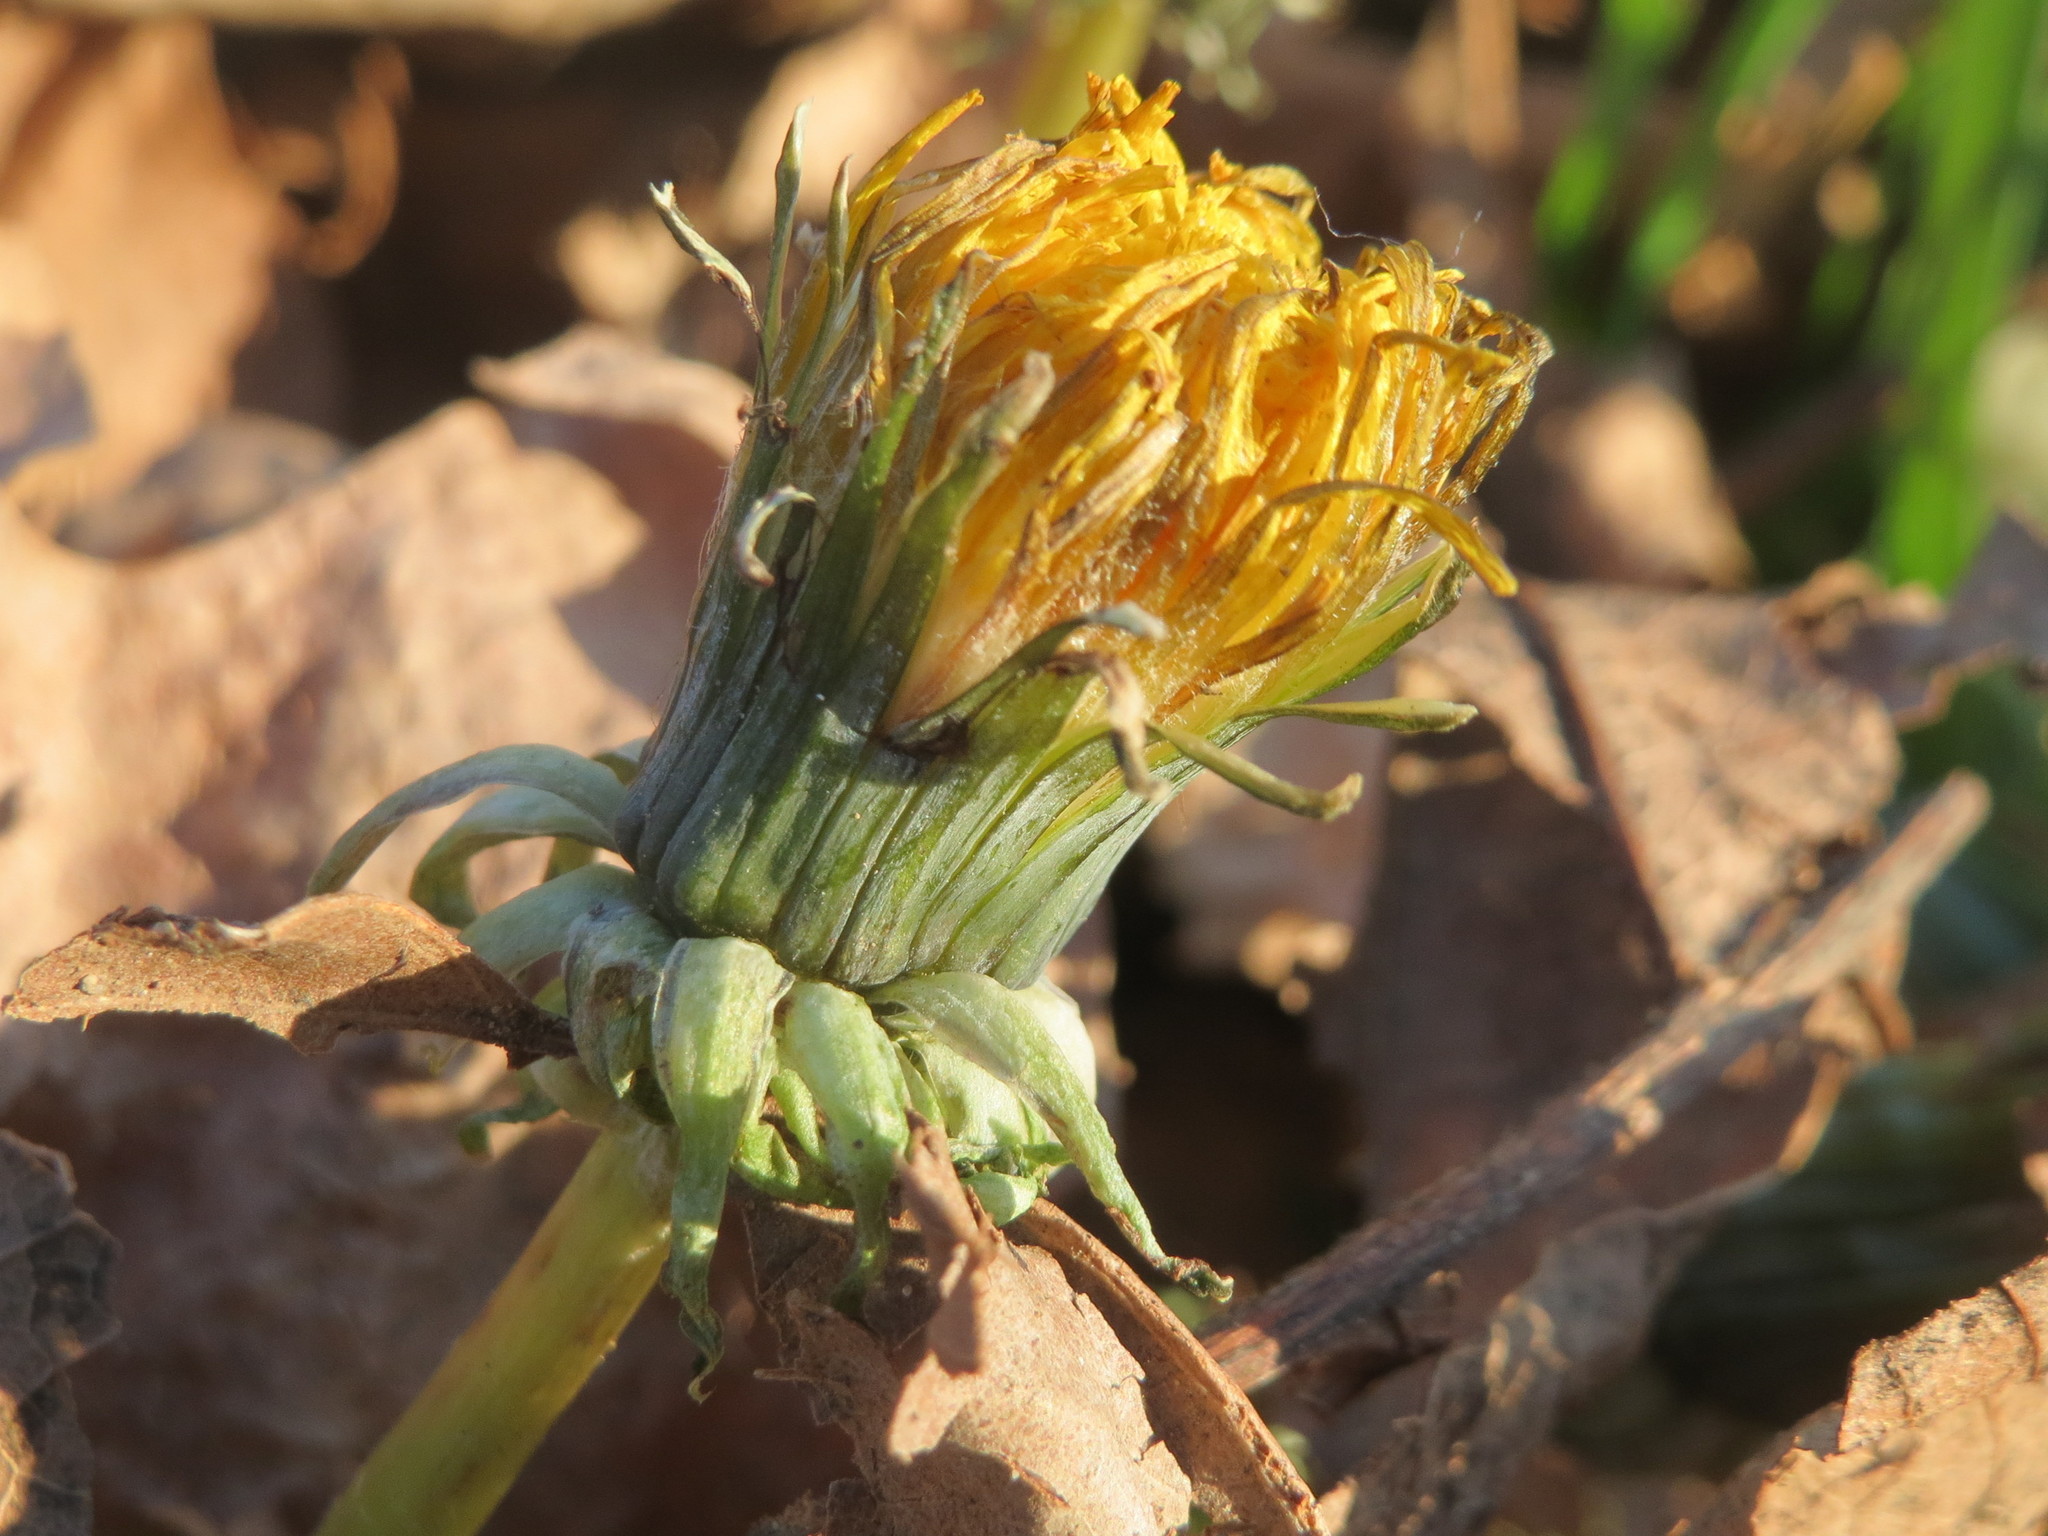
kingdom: Plantae
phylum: Tracheophyta
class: Magnoliopsida
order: Asterales
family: Asteraceae
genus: Taraxacum
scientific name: Taraxacum officinale
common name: Common dandelion
